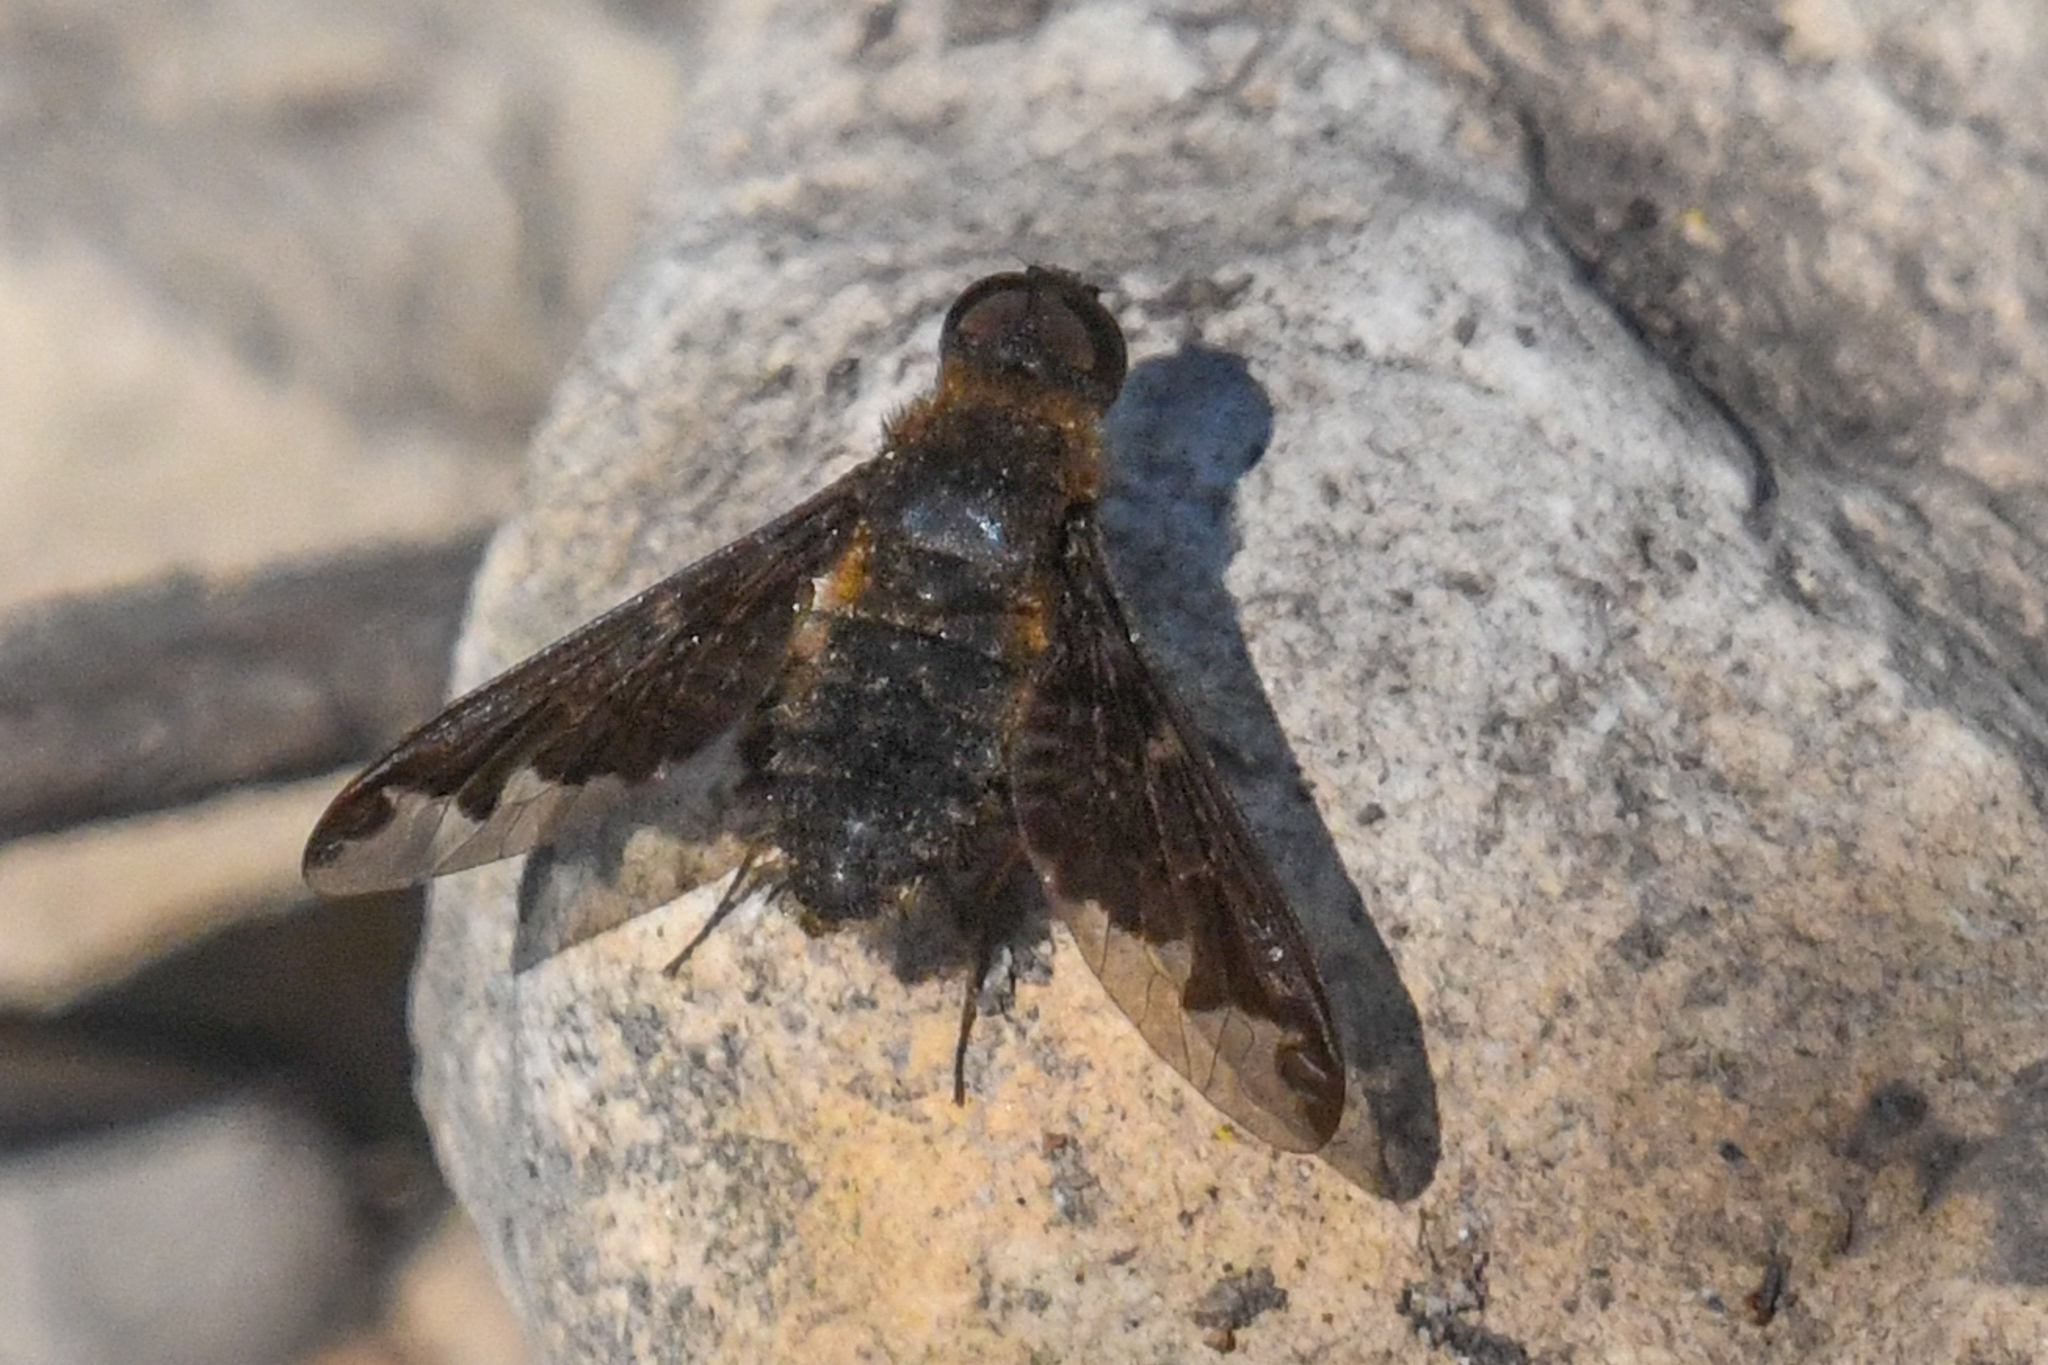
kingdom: Animalia
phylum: Arthropoda
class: Insecta
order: Diptera
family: Bombyliidae
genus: Hemipenthes
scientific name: Hemipenthes sinuosus
